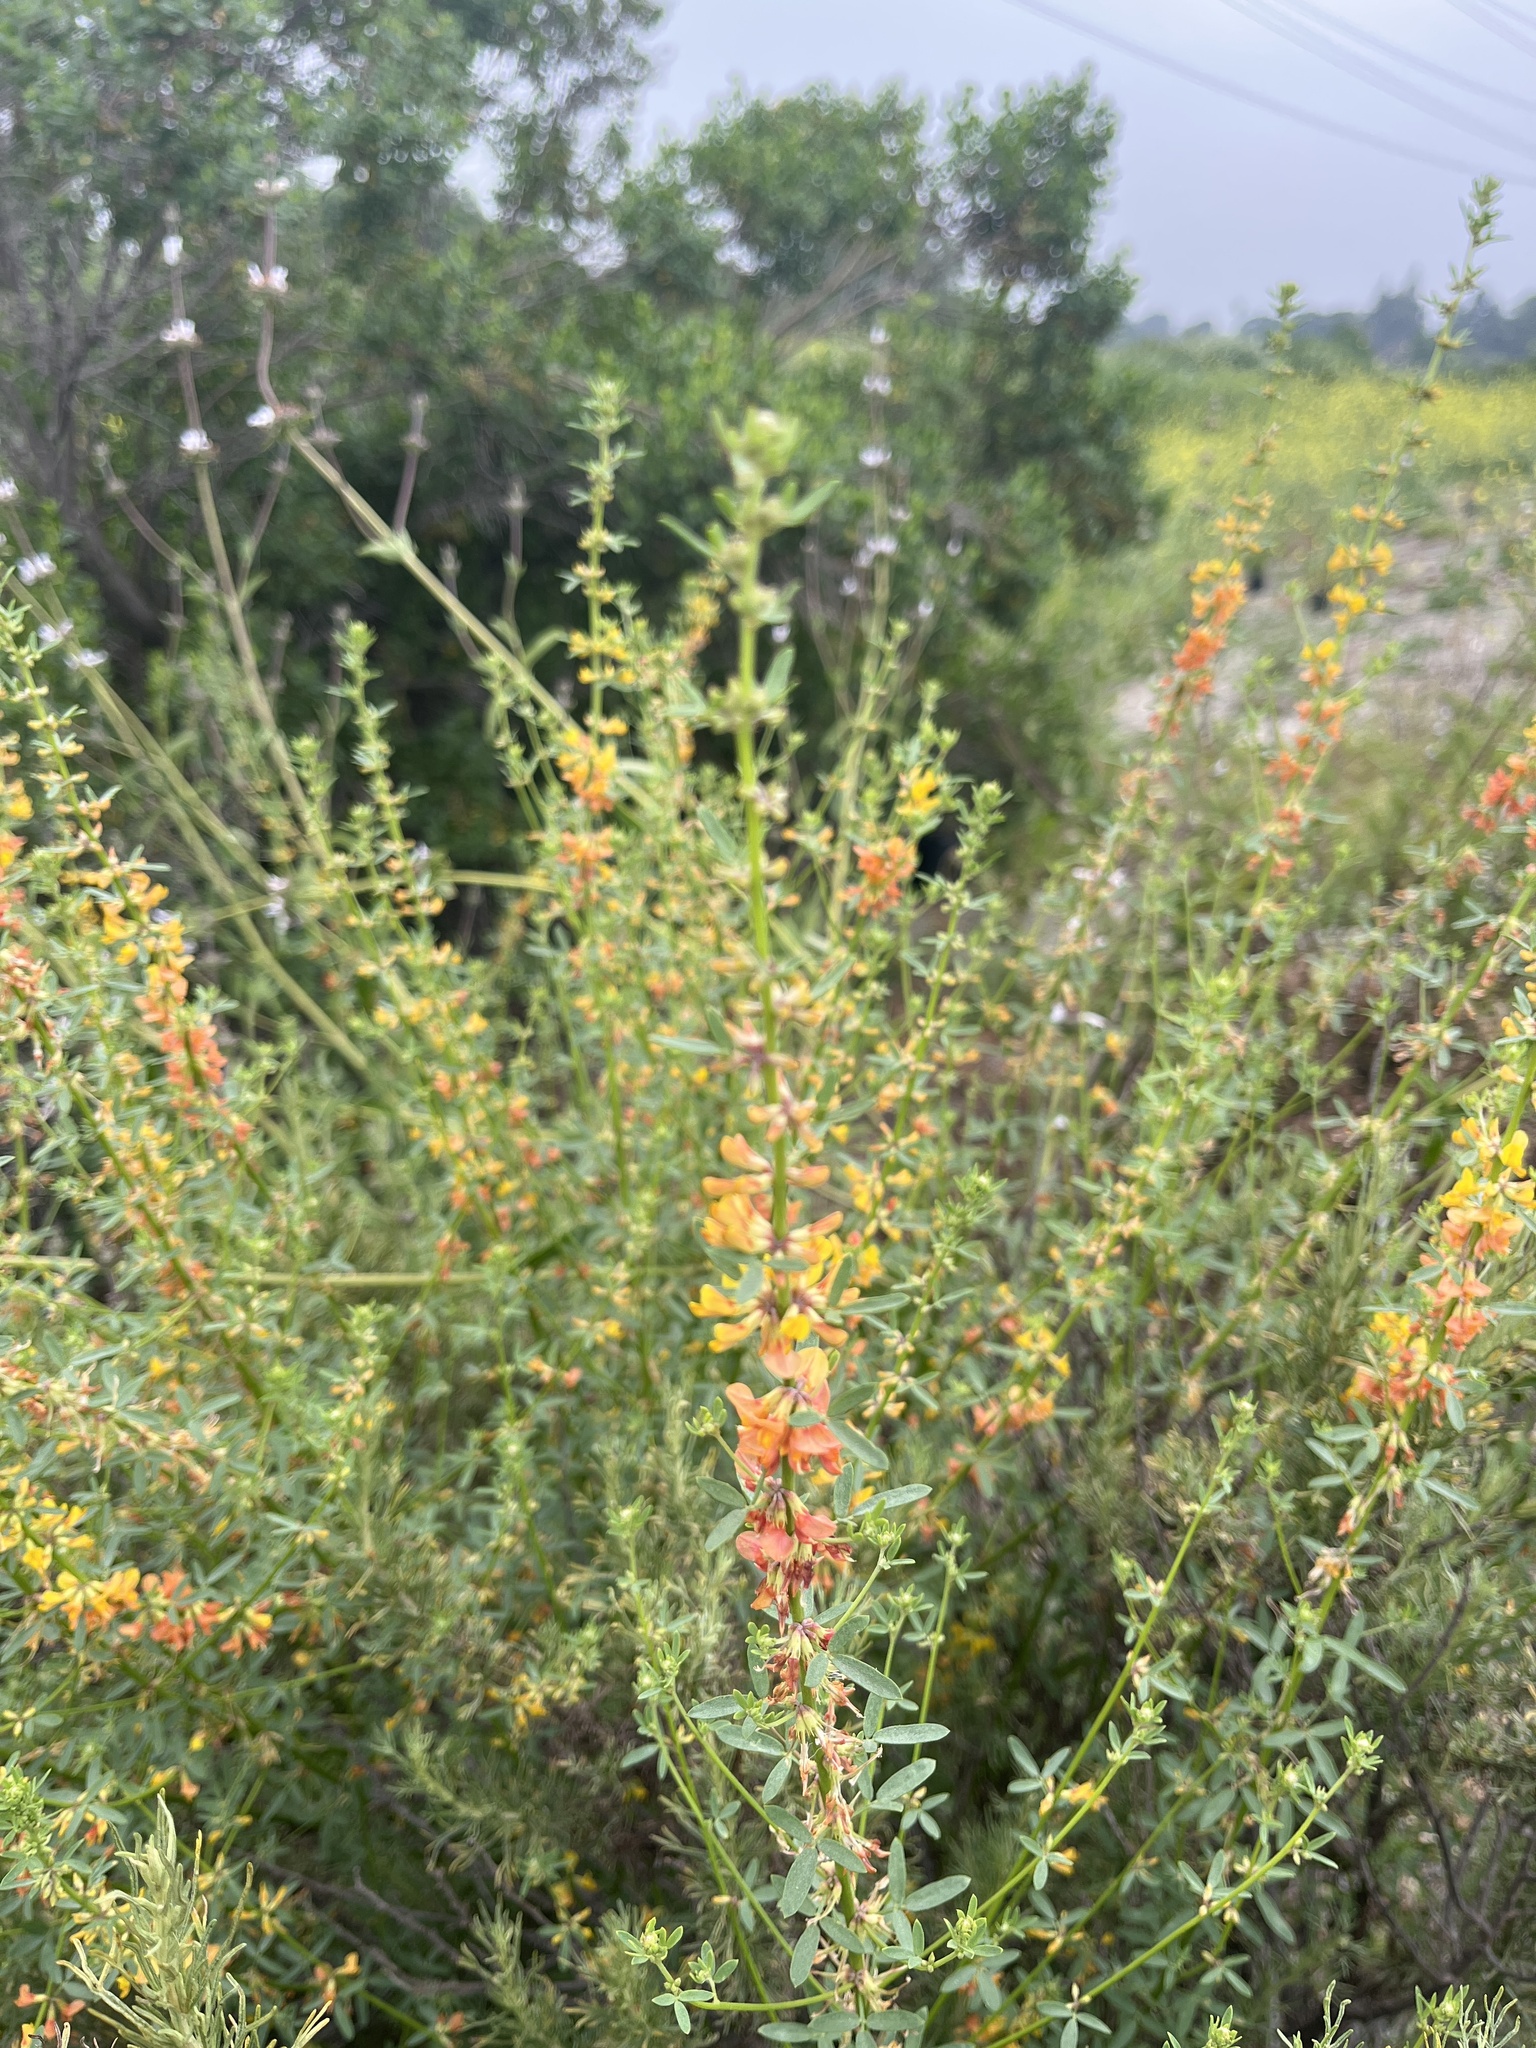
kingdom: Plantae
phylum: Tracheophyta
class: Magnoliopsida
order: Fabales
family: Fabaceae
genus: Acmispon
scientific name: Acmispon glaber
